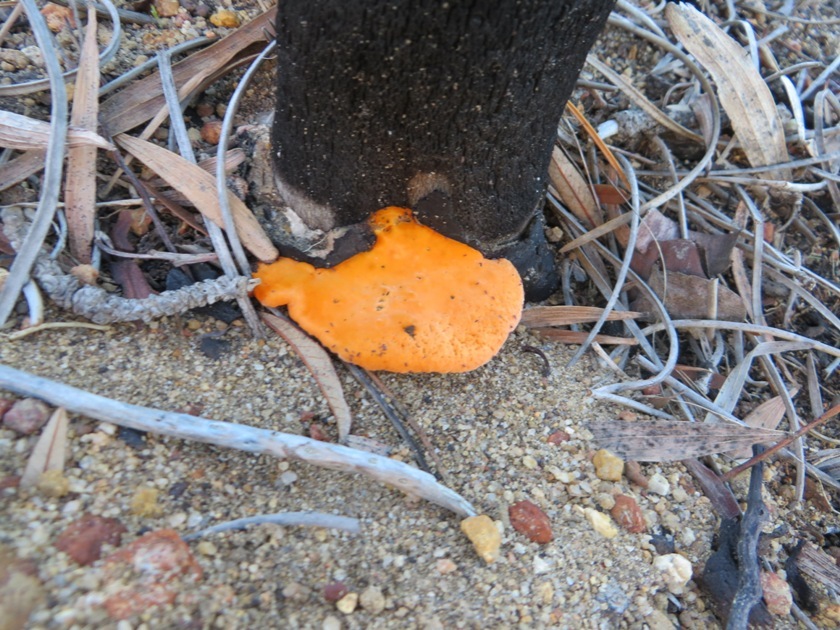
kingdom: Fungi
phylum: Basidiomycota
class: Agaricomycetes
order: Polyporales
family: Polyporaceae
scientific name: Polyporaceae
